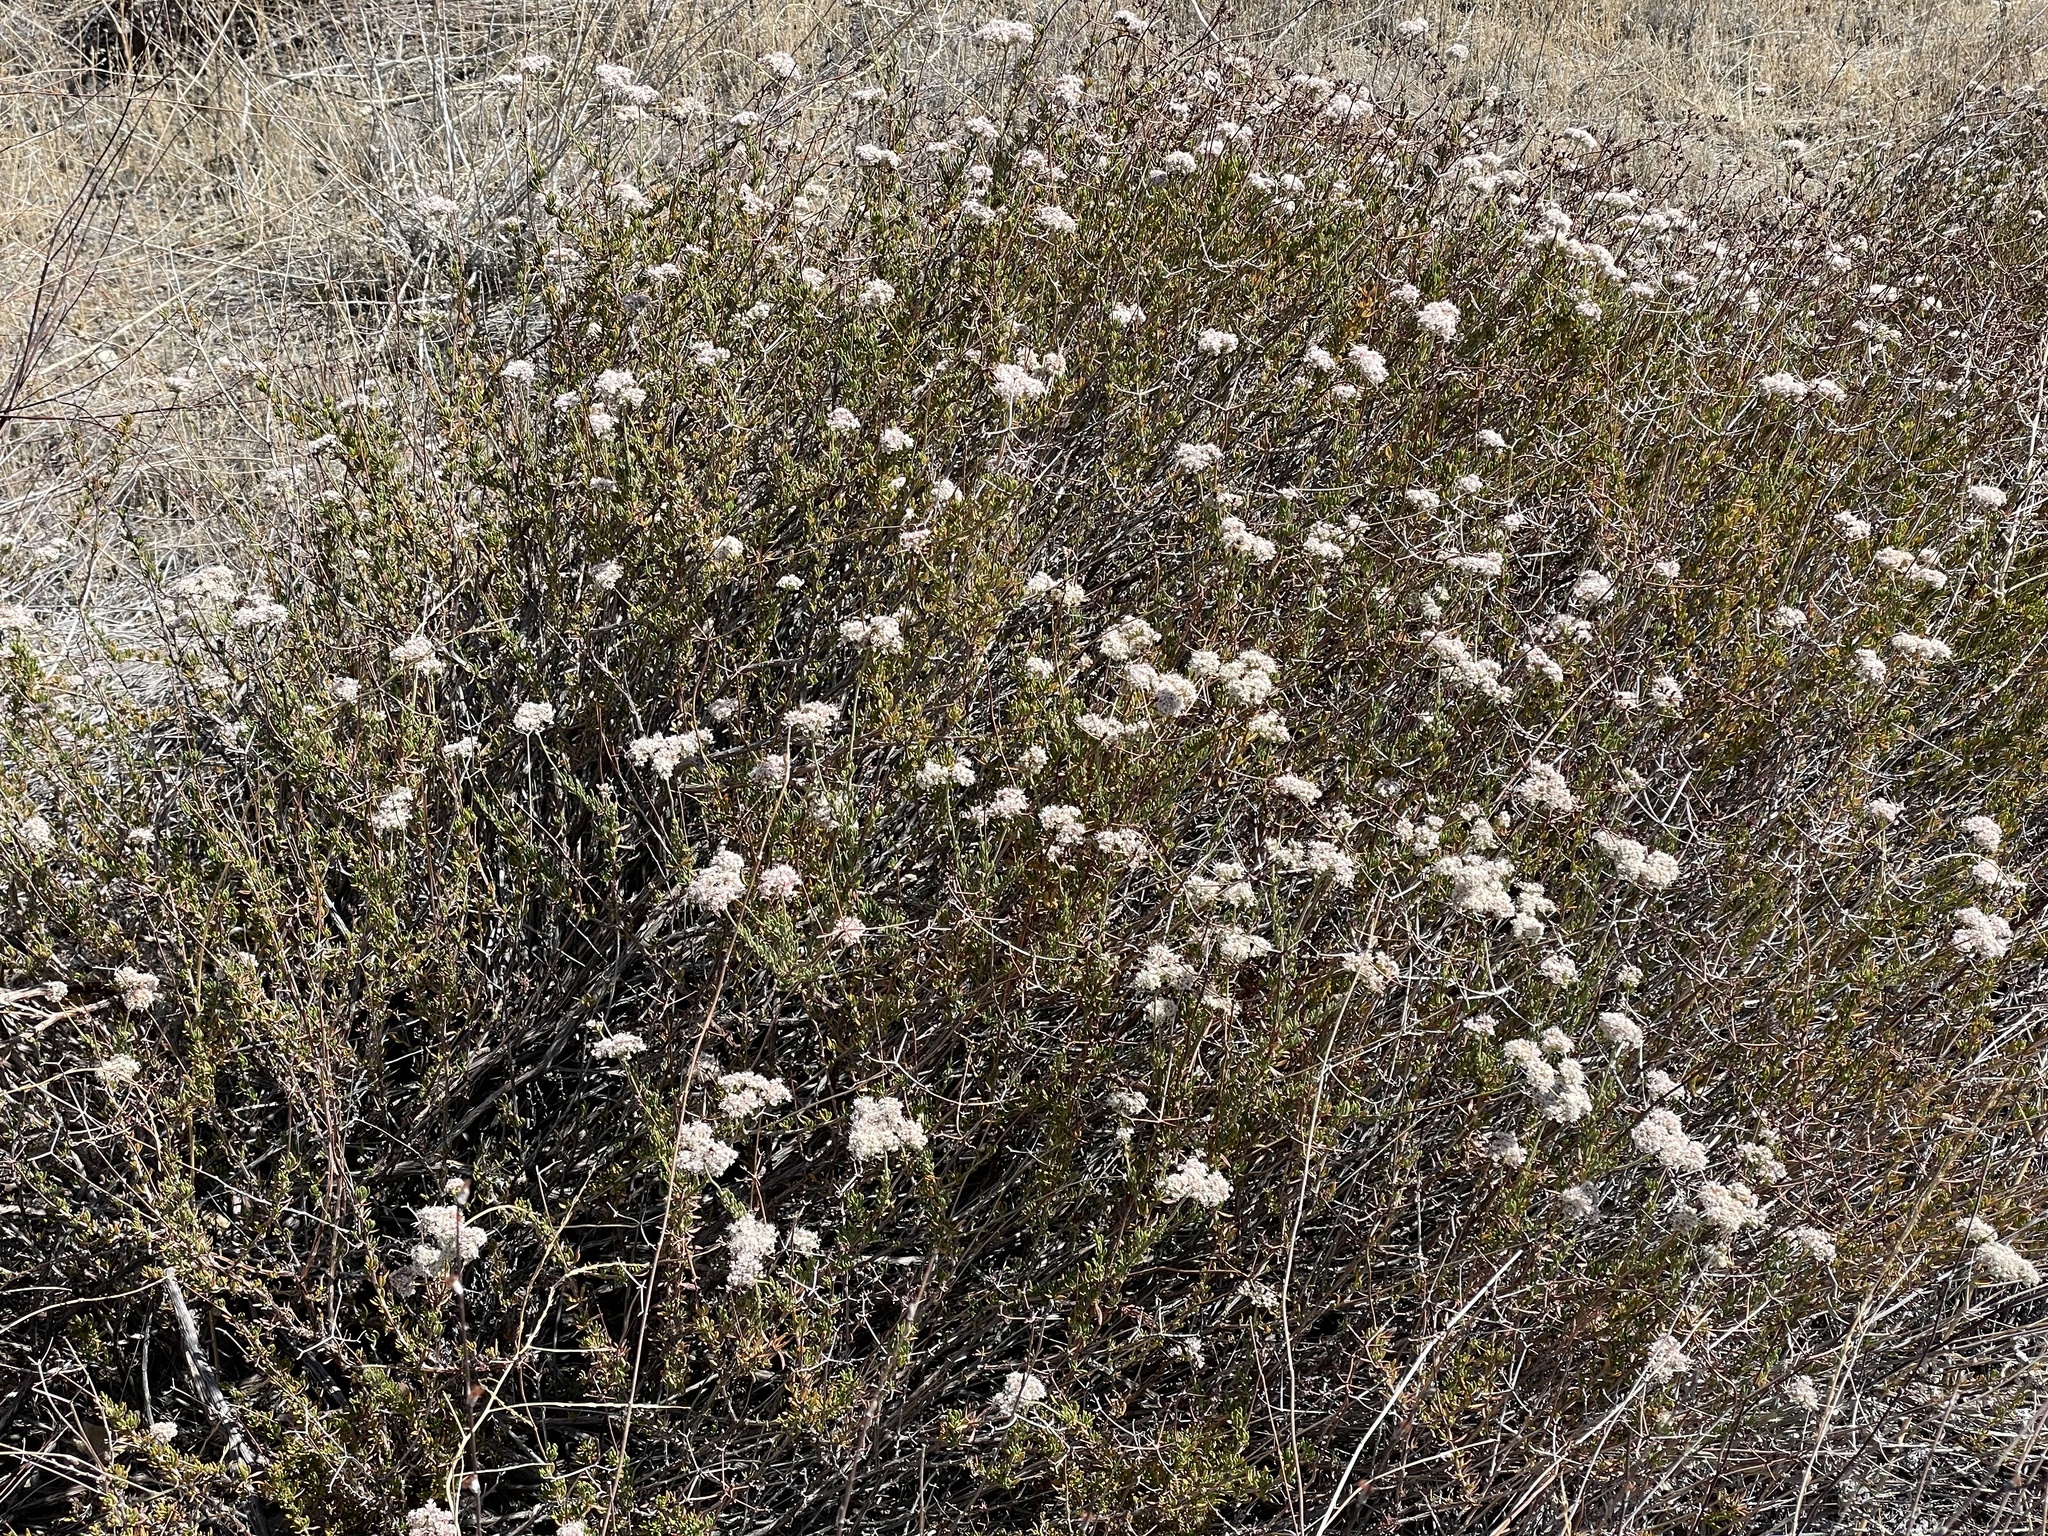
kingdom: Plantae
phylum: Tracheophyta
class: Magnoliopsida
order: Caryophyllales
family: Polygonaceae
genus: Eriogonum
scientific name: Eriogonum fasciculatum
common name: California wild buckwheat
